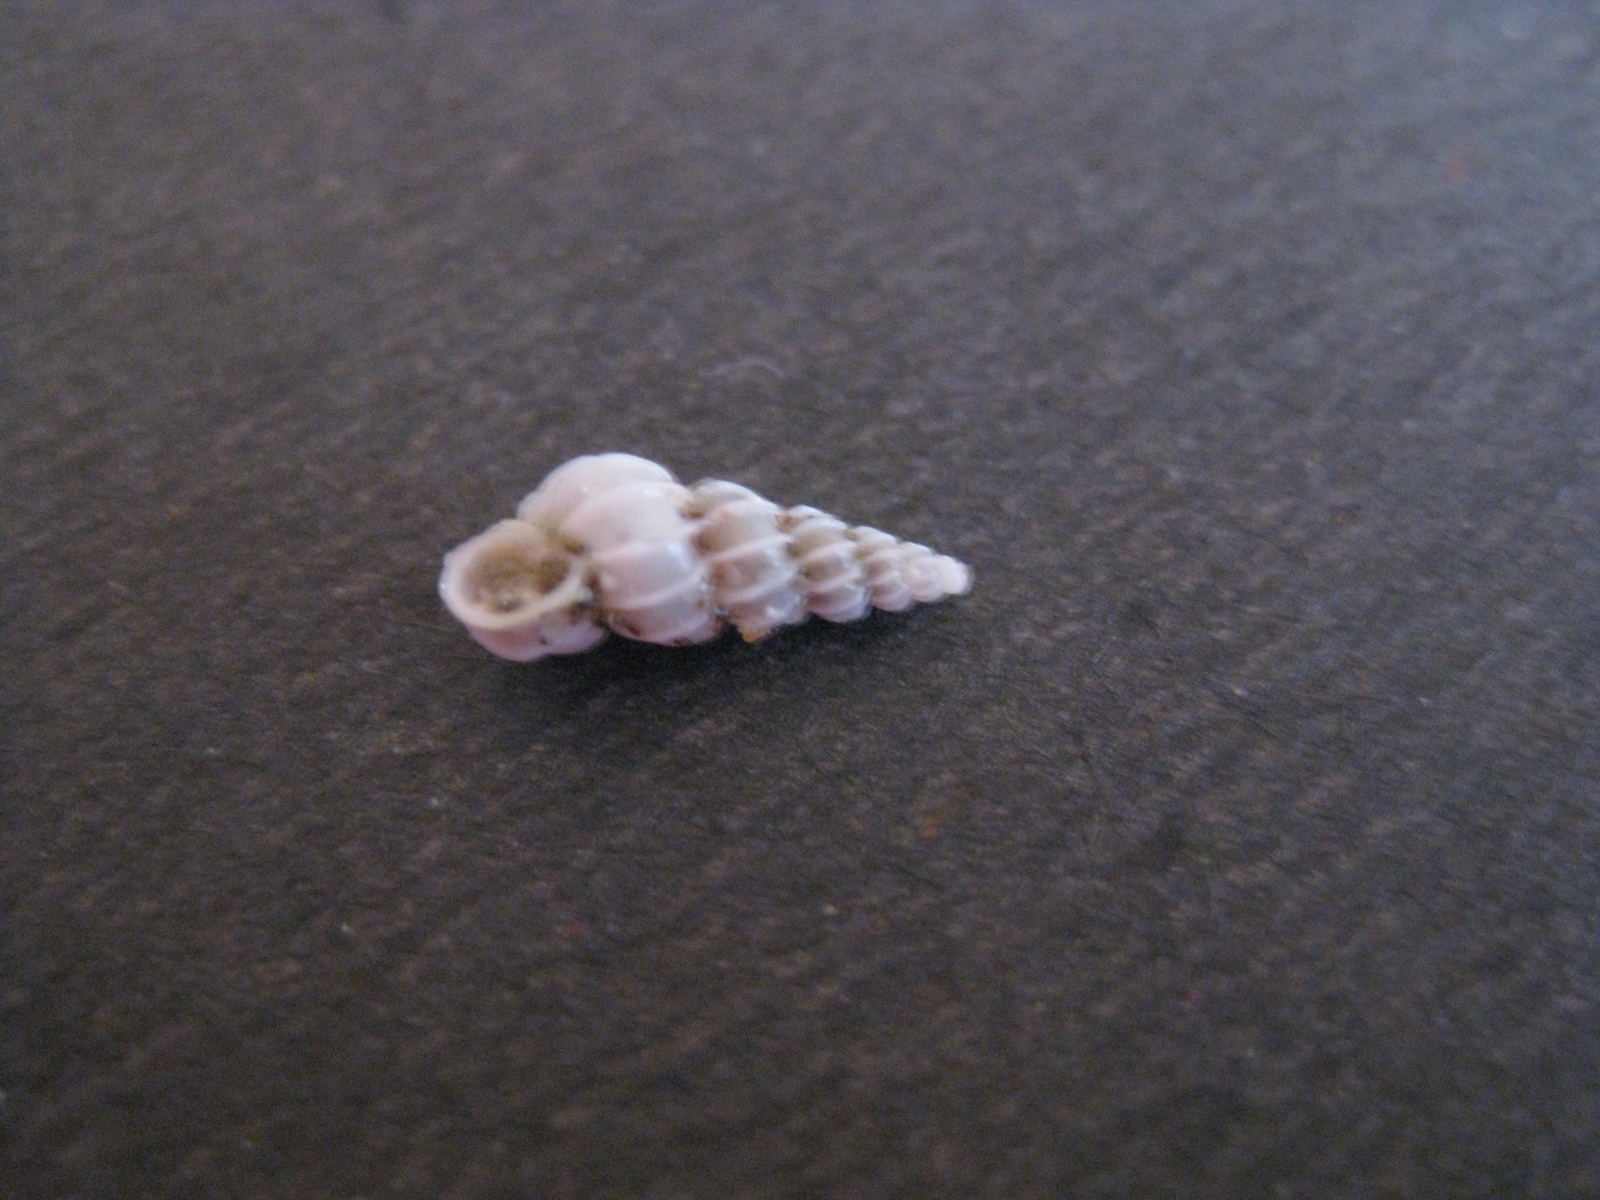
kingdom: Animalia
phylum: Mollusca
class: Gastropoda
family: Epitoniidae
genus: Epitonium
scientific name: Epitonium minorum
